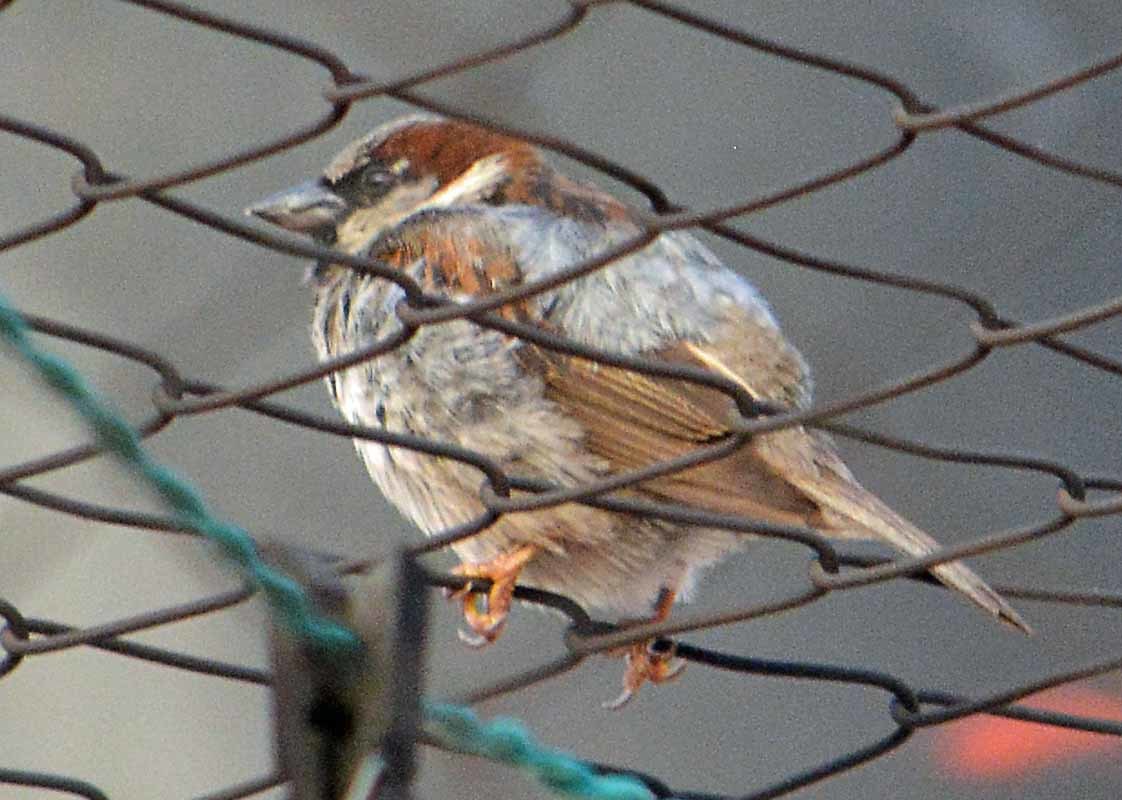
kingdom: Animalia
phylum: Chordata
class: Aves
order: Passeriformes
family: Passeridae
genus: Passer
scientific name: Passer domesticus
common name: House sparrow
